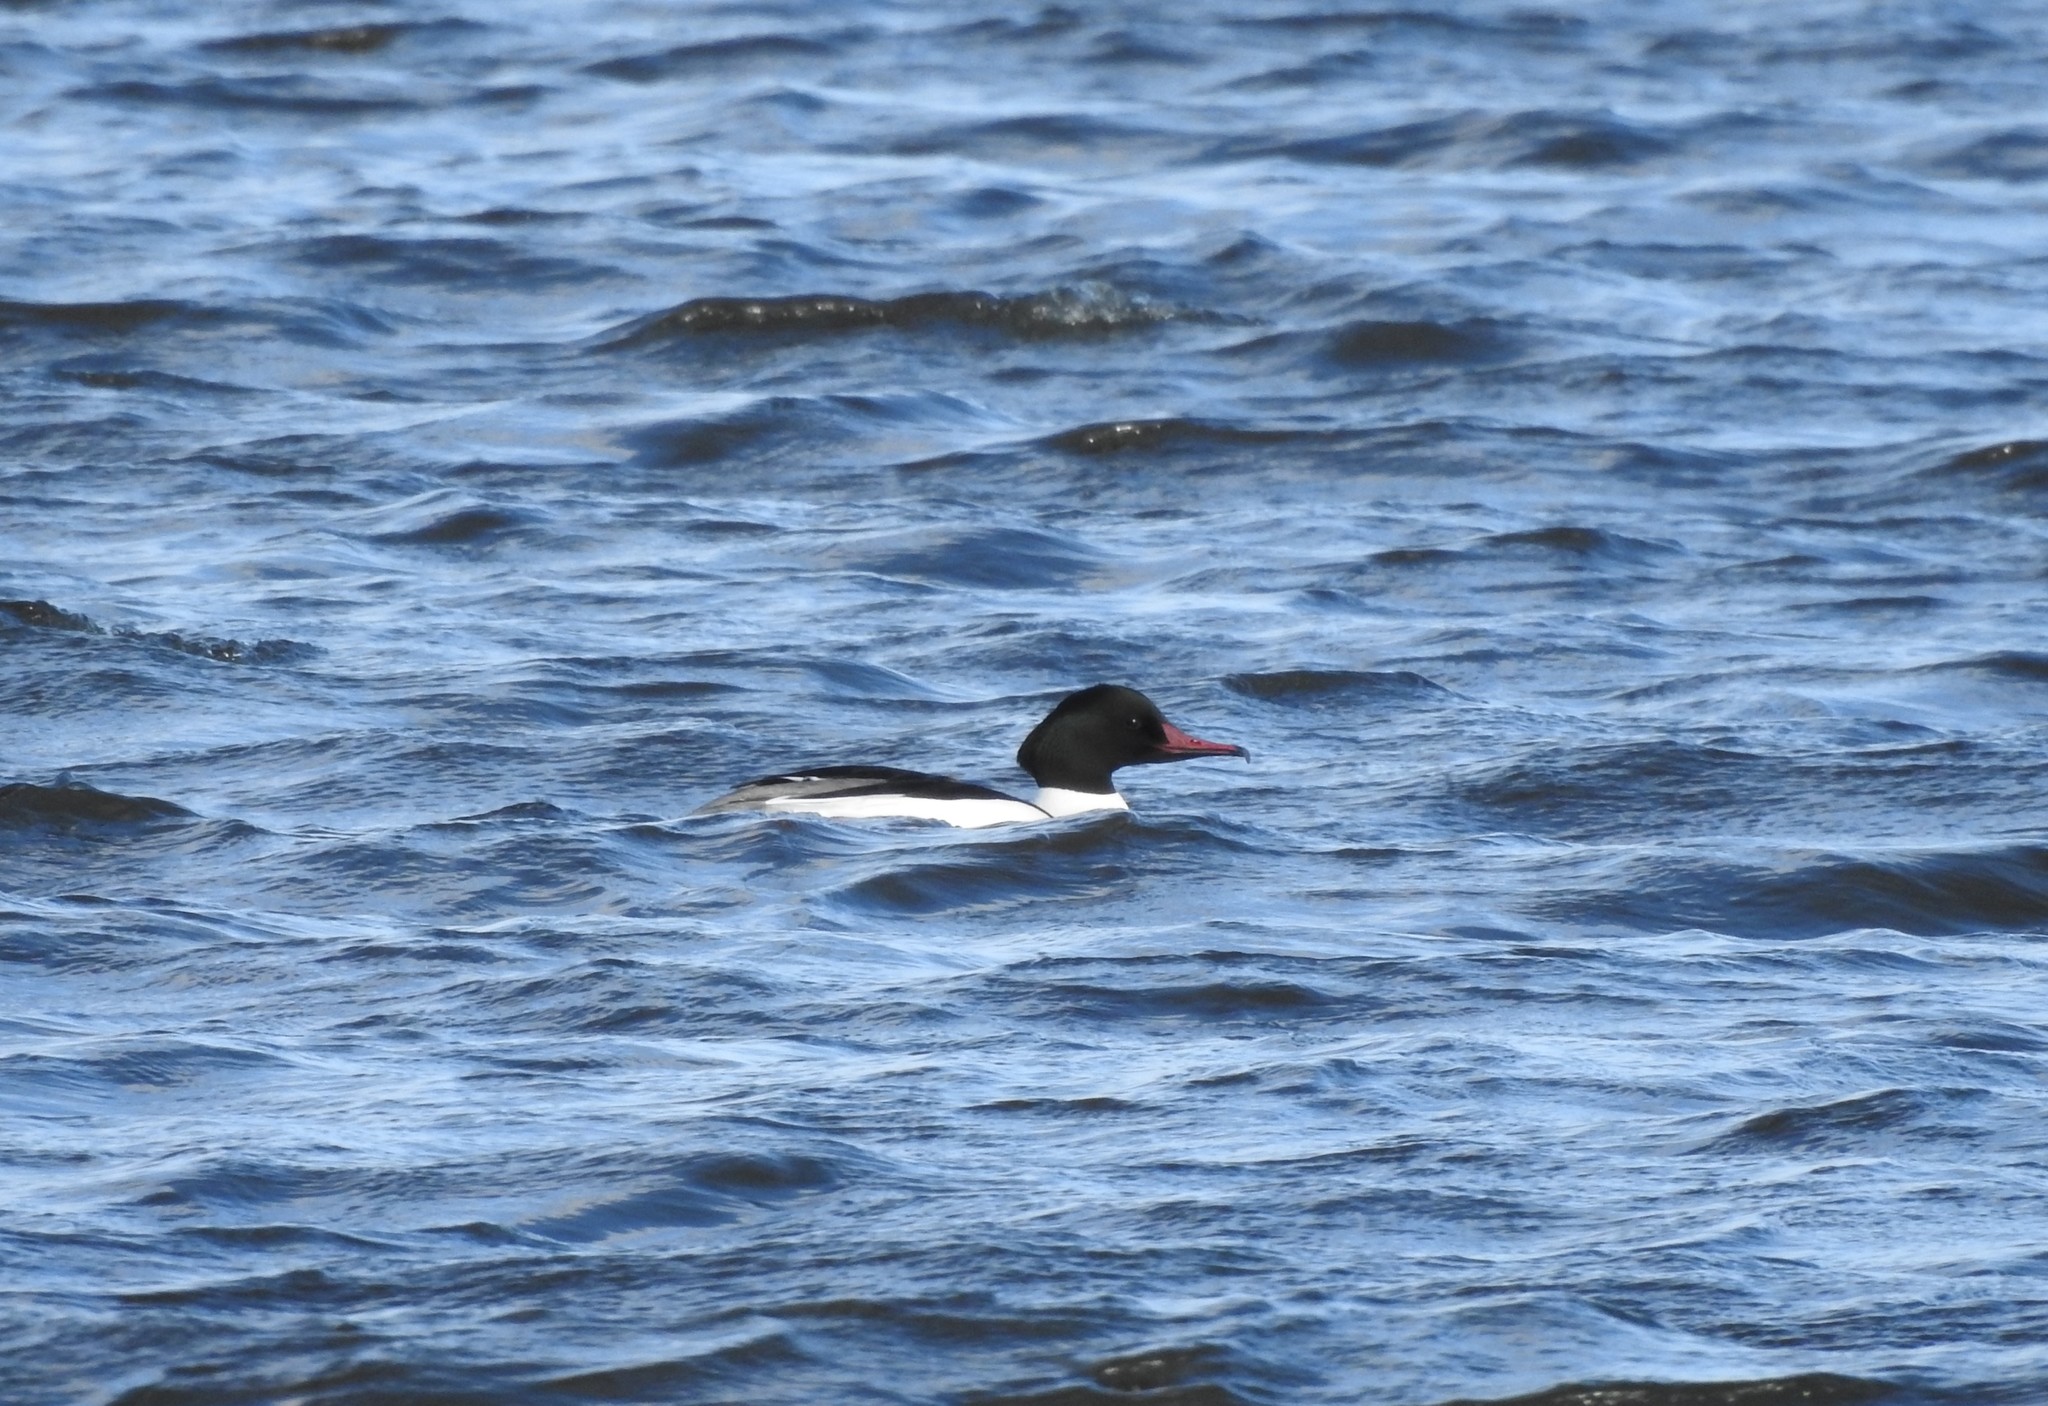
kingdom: Animalia
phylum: Chordata
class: Aves
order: Anseriformes
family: Anatidae
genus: Mergus
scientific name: Mergus merganser
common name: Common merganser
